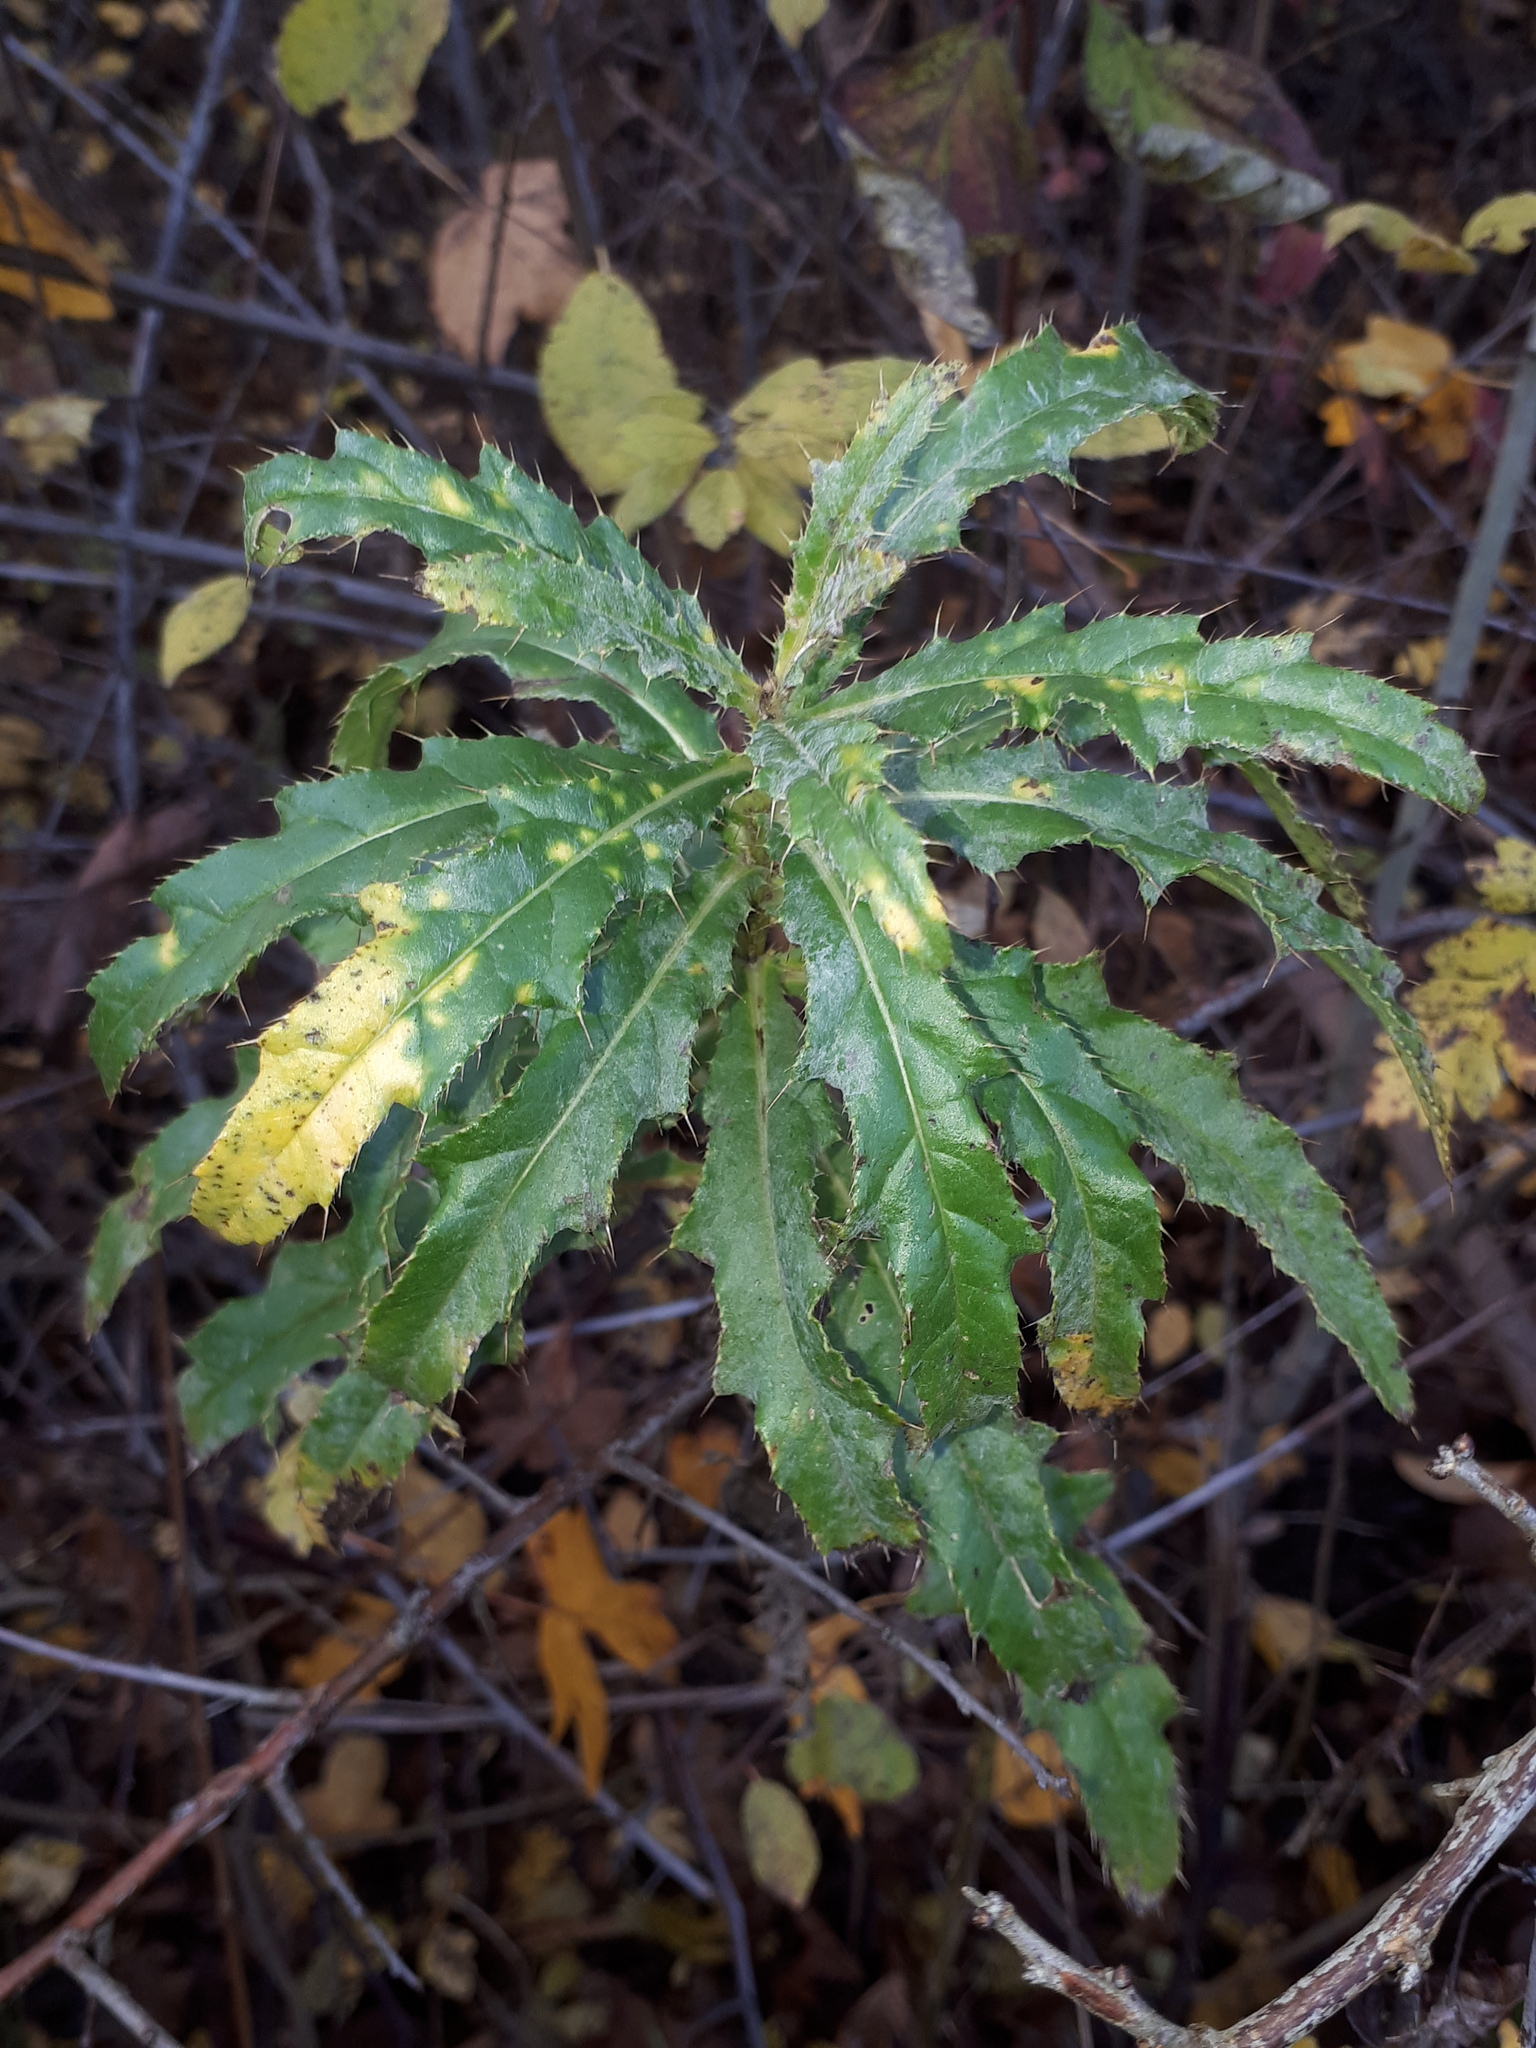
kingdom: Plantae
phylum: Tracheophyta
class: Magnoliopsida
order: Asterales
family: Asteraceae
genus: Cirsium
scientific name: Cirsium arvense
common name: Creeping thistle
